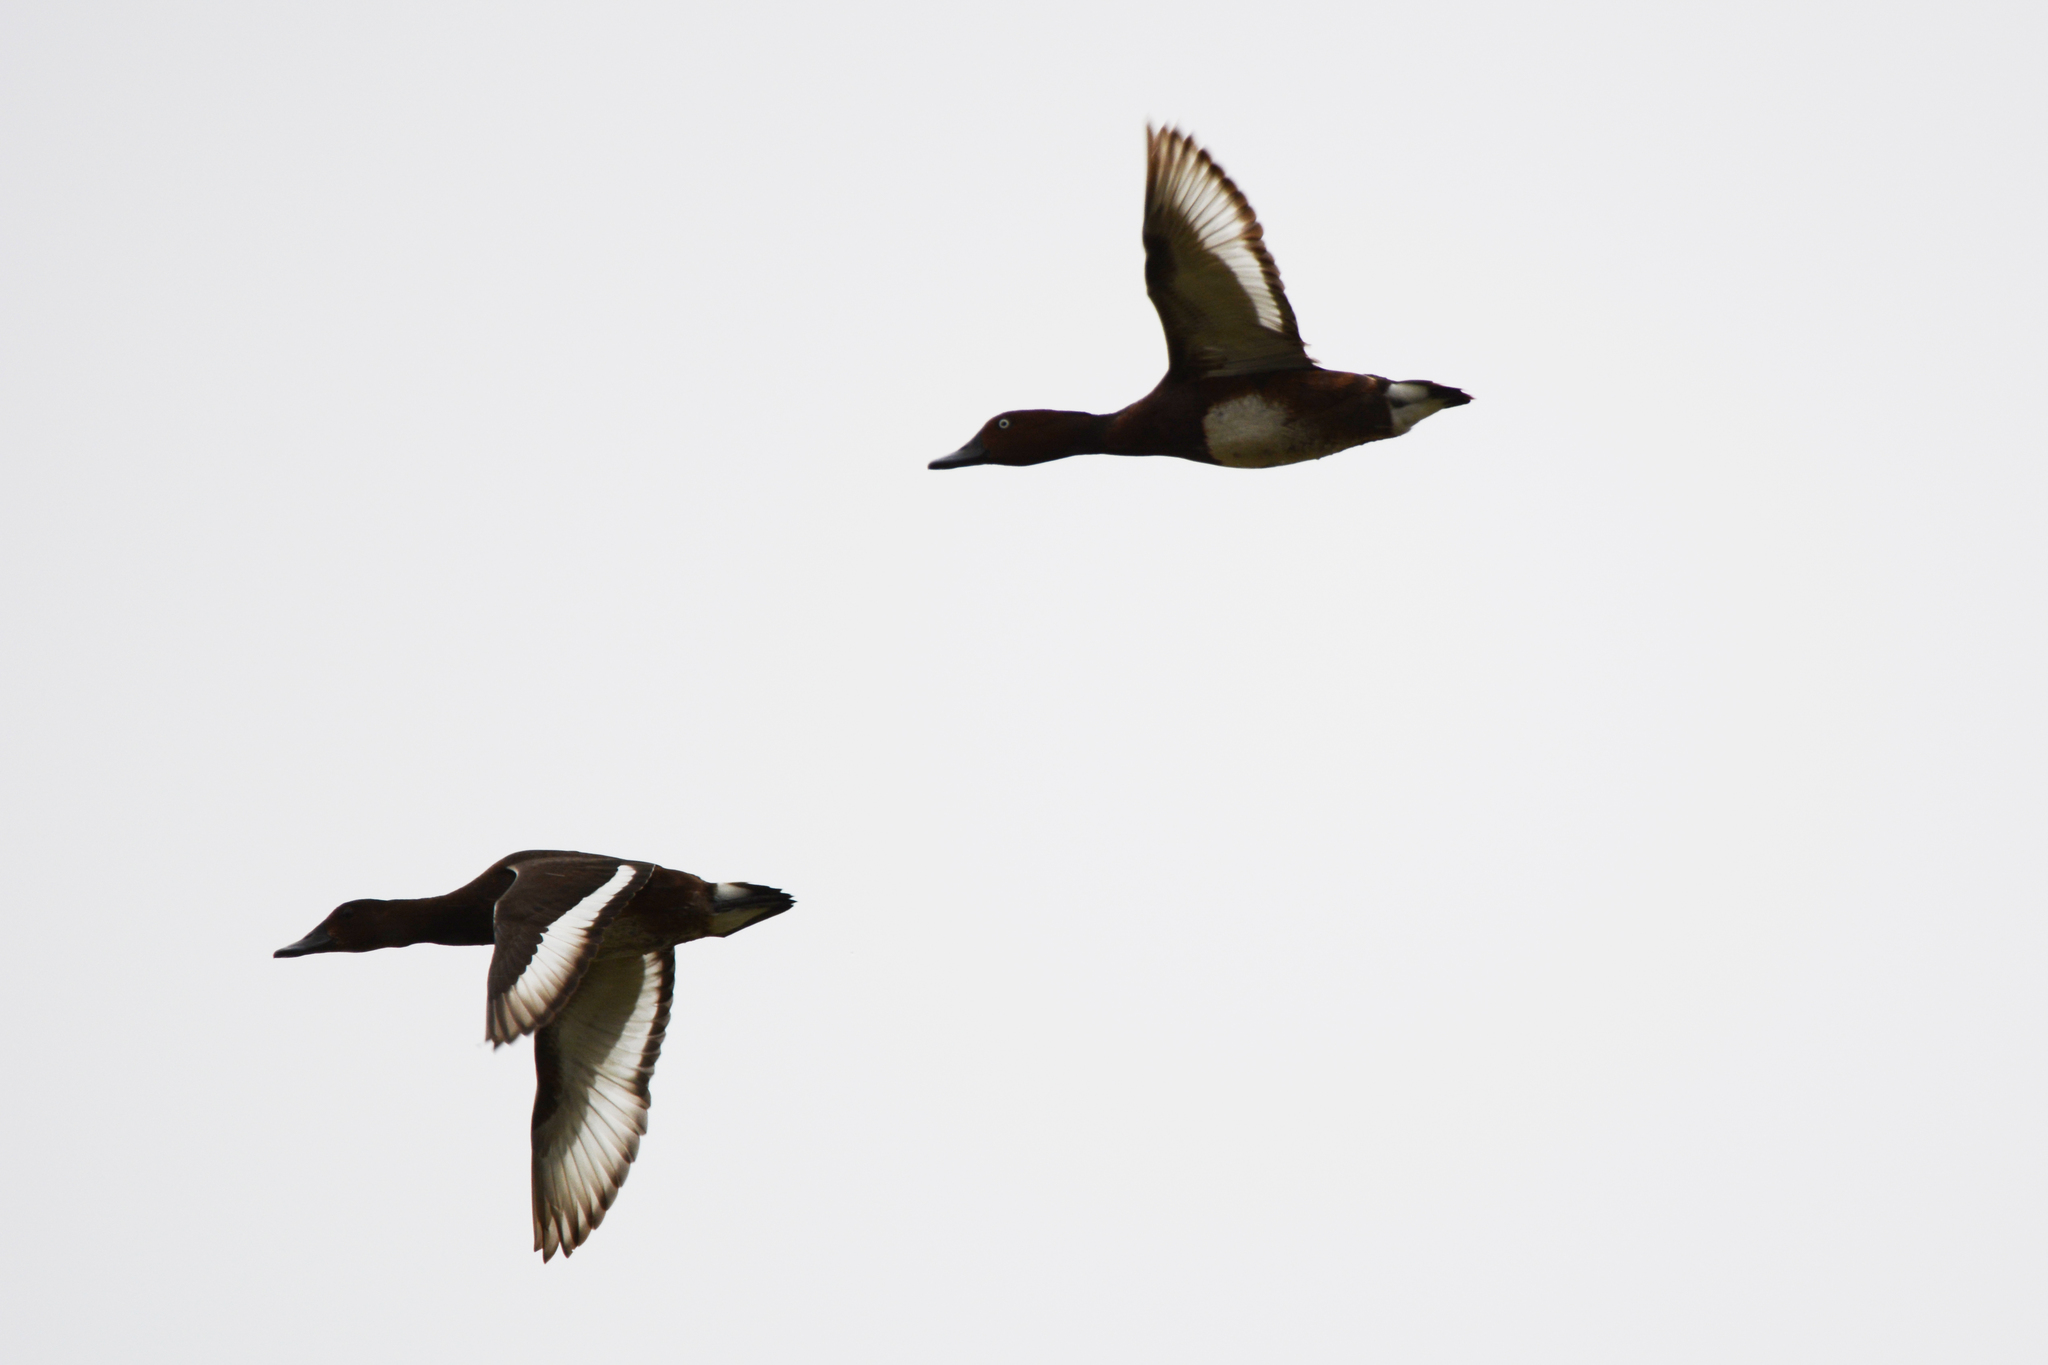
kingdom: Animalia
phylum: Chordata
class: Aves
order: Anseriformes
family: Anatidae
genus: Aythya
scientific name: Aythya nyroca
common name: Ferruginous duck
